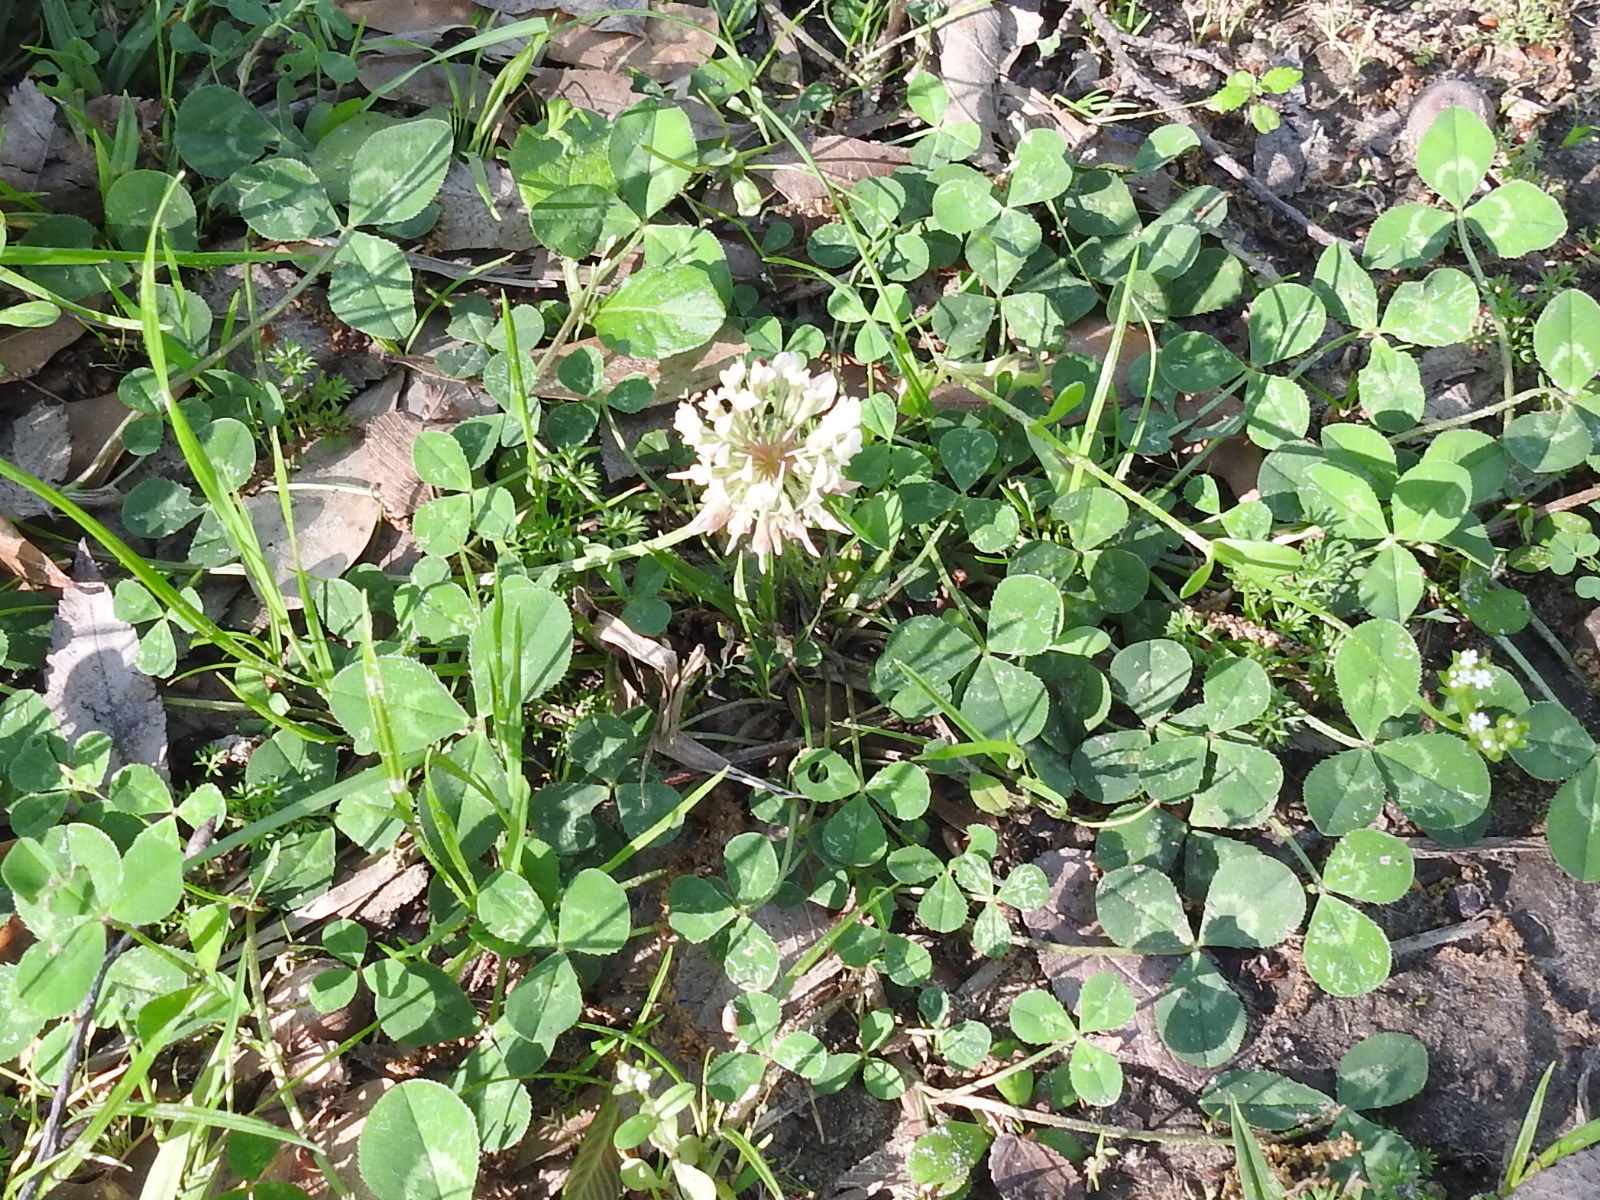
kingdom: Plantae
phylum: Tracheophyta
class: Magnoliopsida
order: Fabales
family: Fabaceae
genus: Trifolium
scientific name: Trifolium repens
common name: White clover
